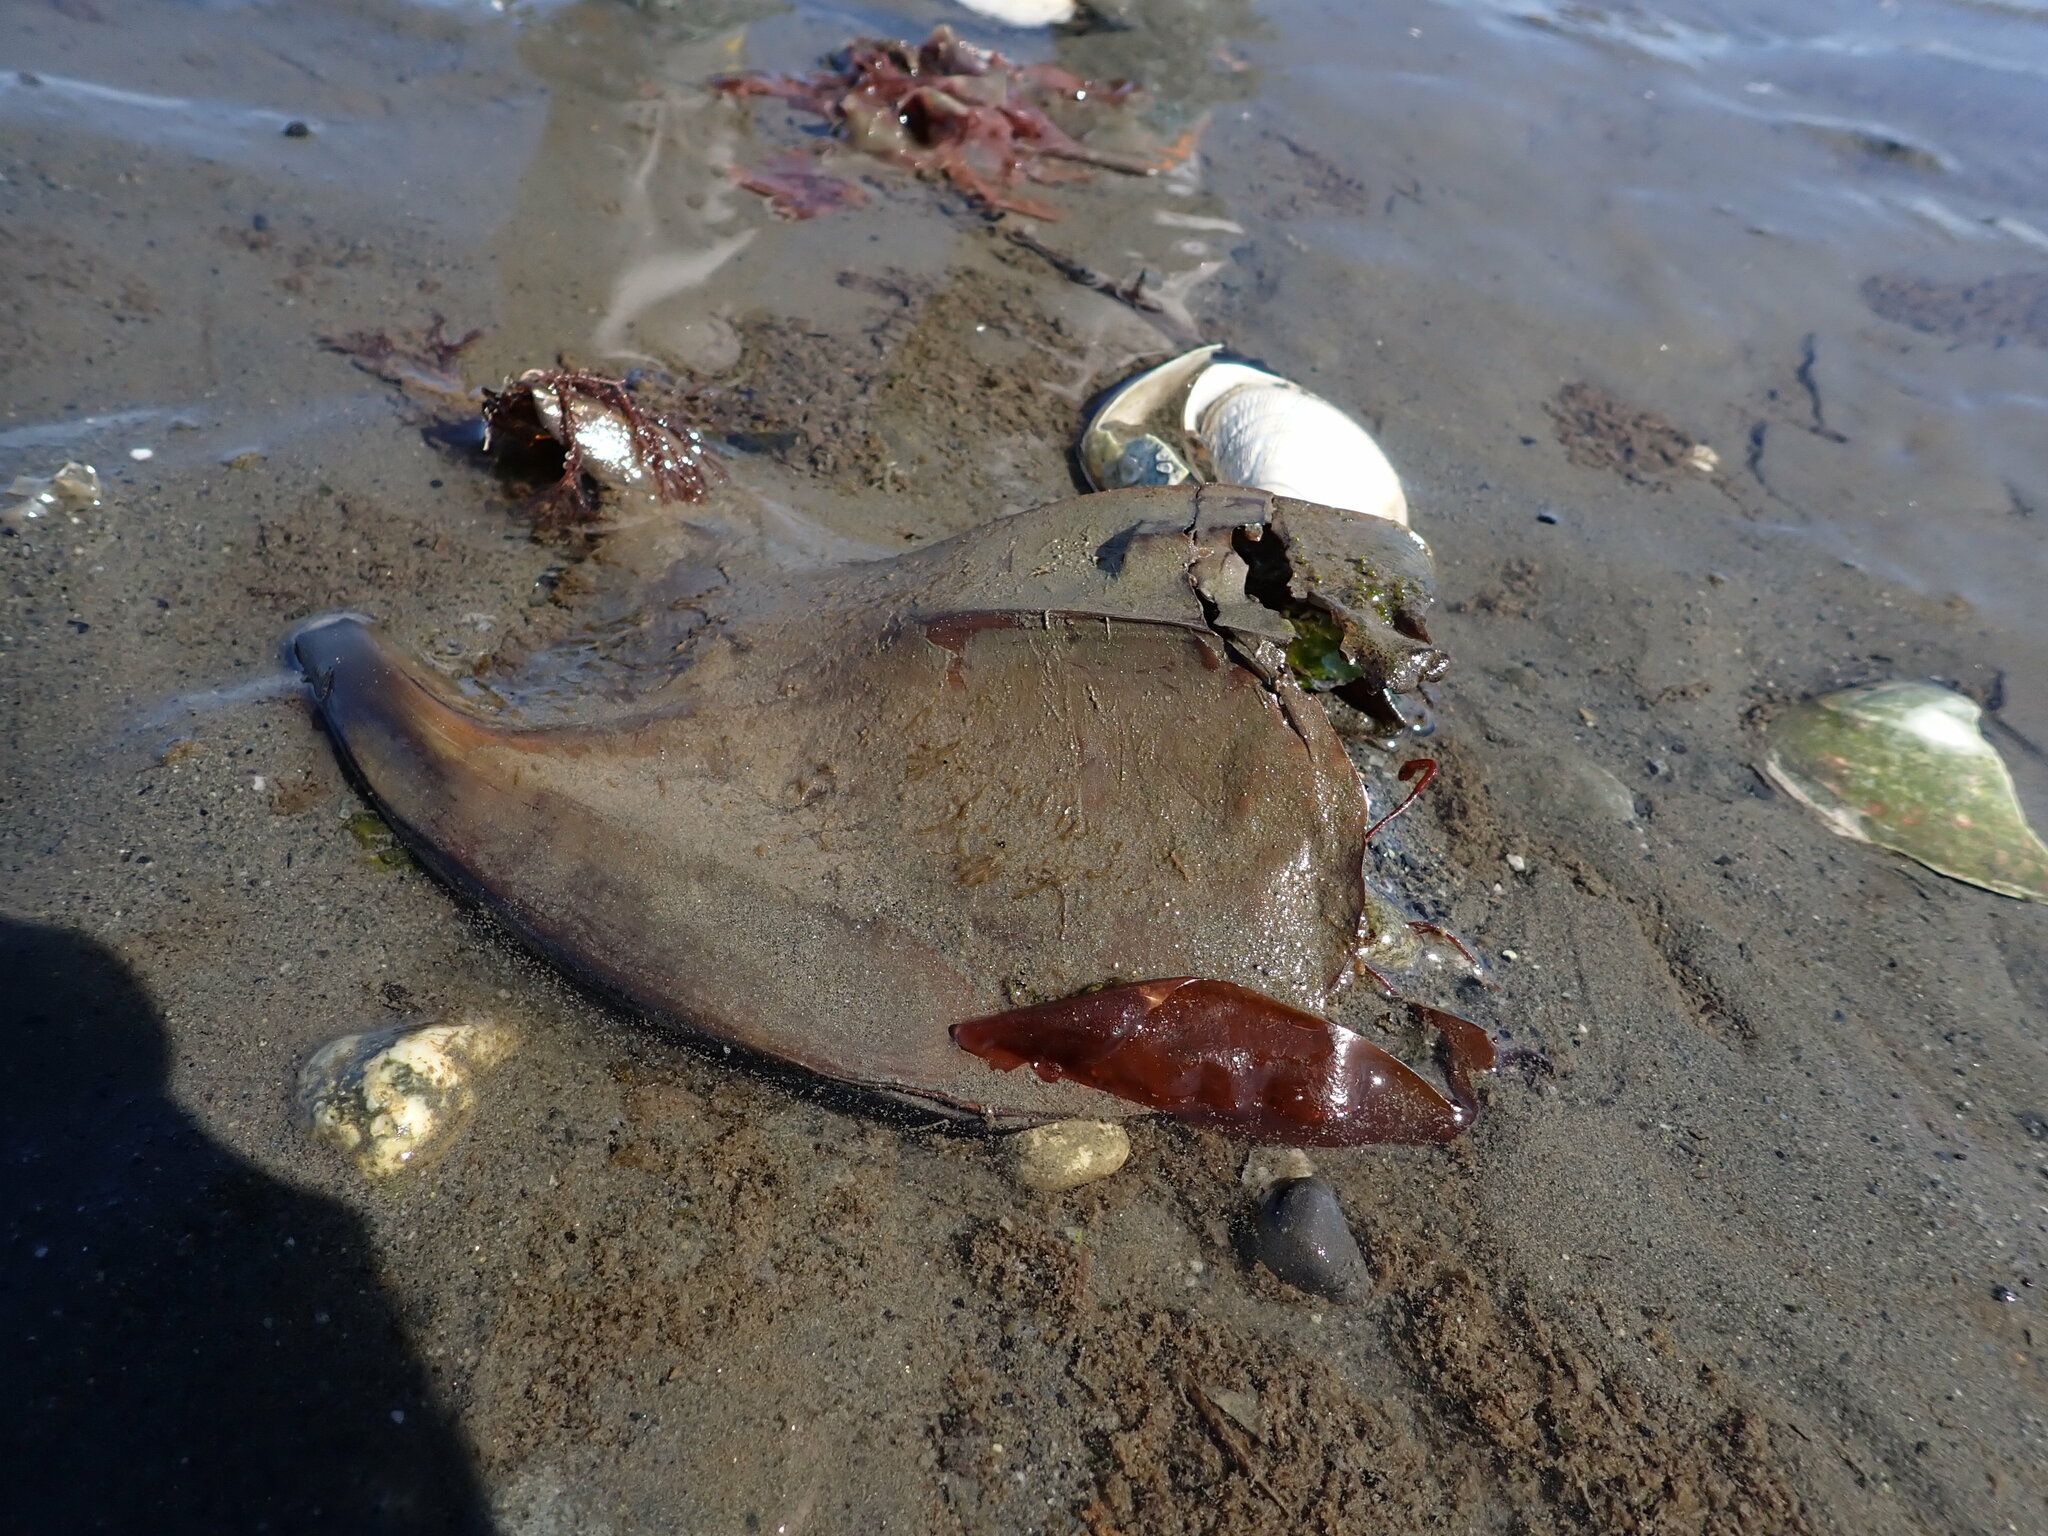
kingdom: Animalia
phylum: Chordata
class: Elasmobranchii
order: Rajiformes
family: Rajidae
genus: Beringraja
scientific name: Beringraja binoculata
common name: Big skate
